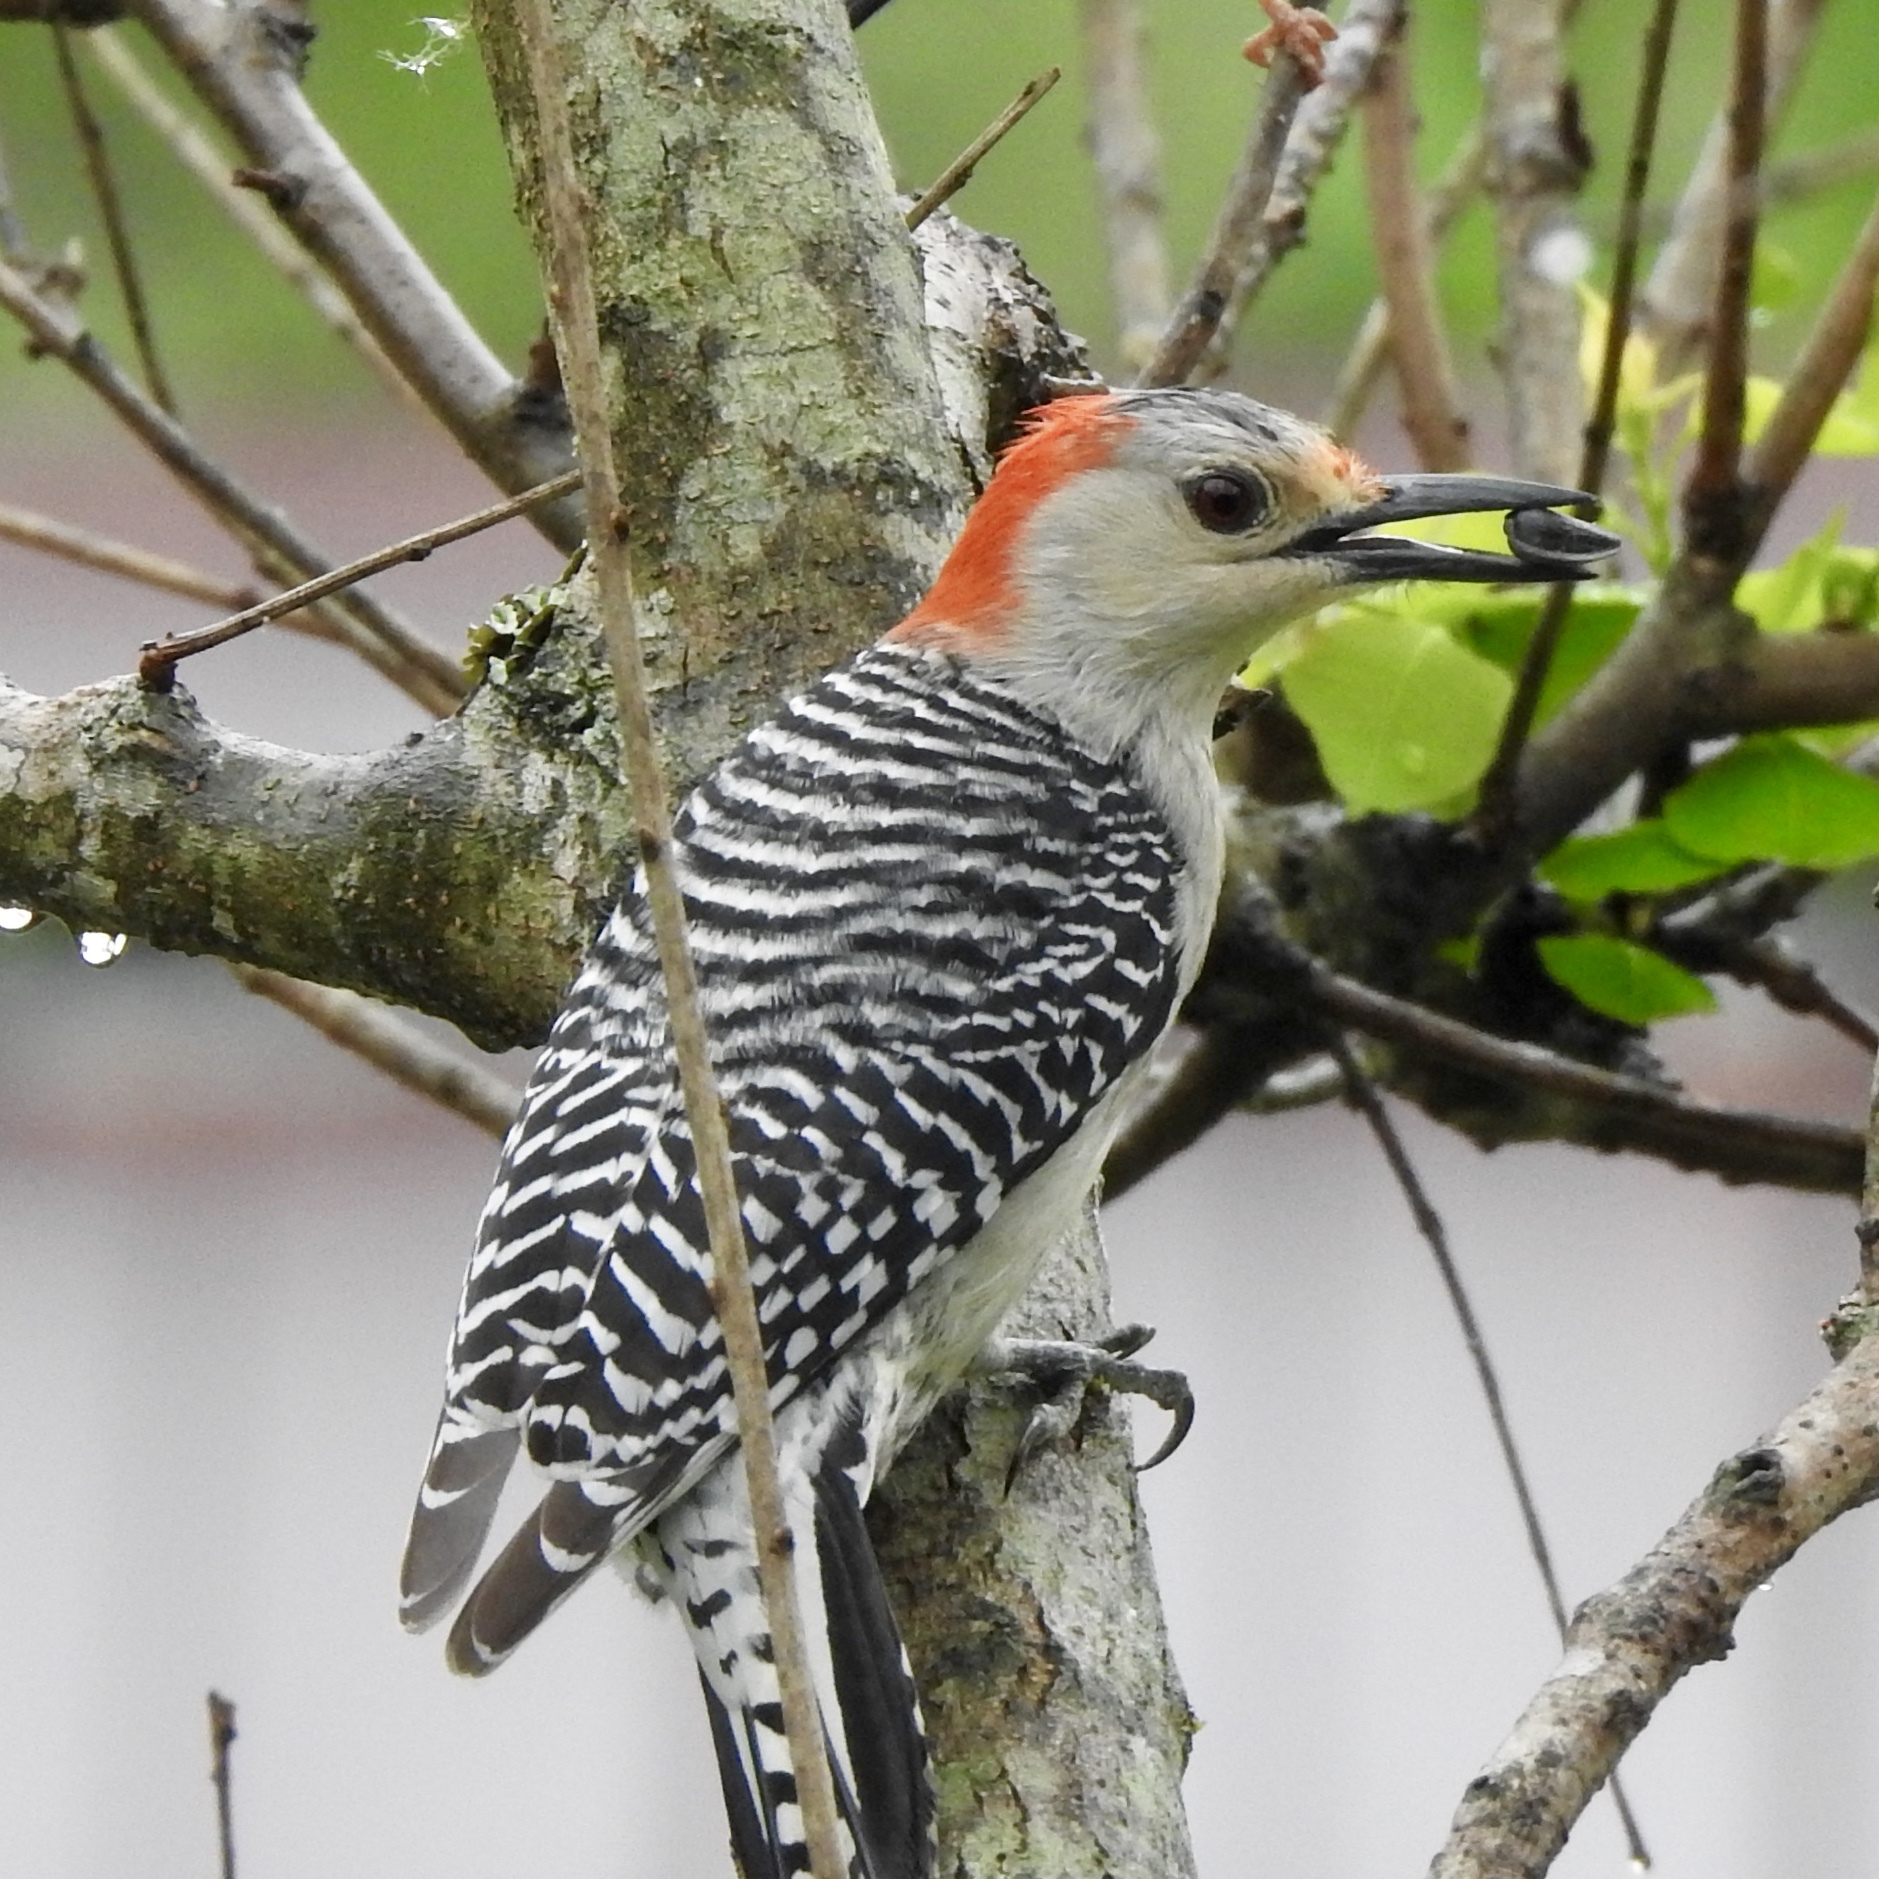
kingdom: Animalia
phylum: Chordata
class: Aves
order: Piciformes
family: Picidae
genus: Melanerpes
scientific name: Melanerpes carolinus
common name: Red-bellied woodpecker
